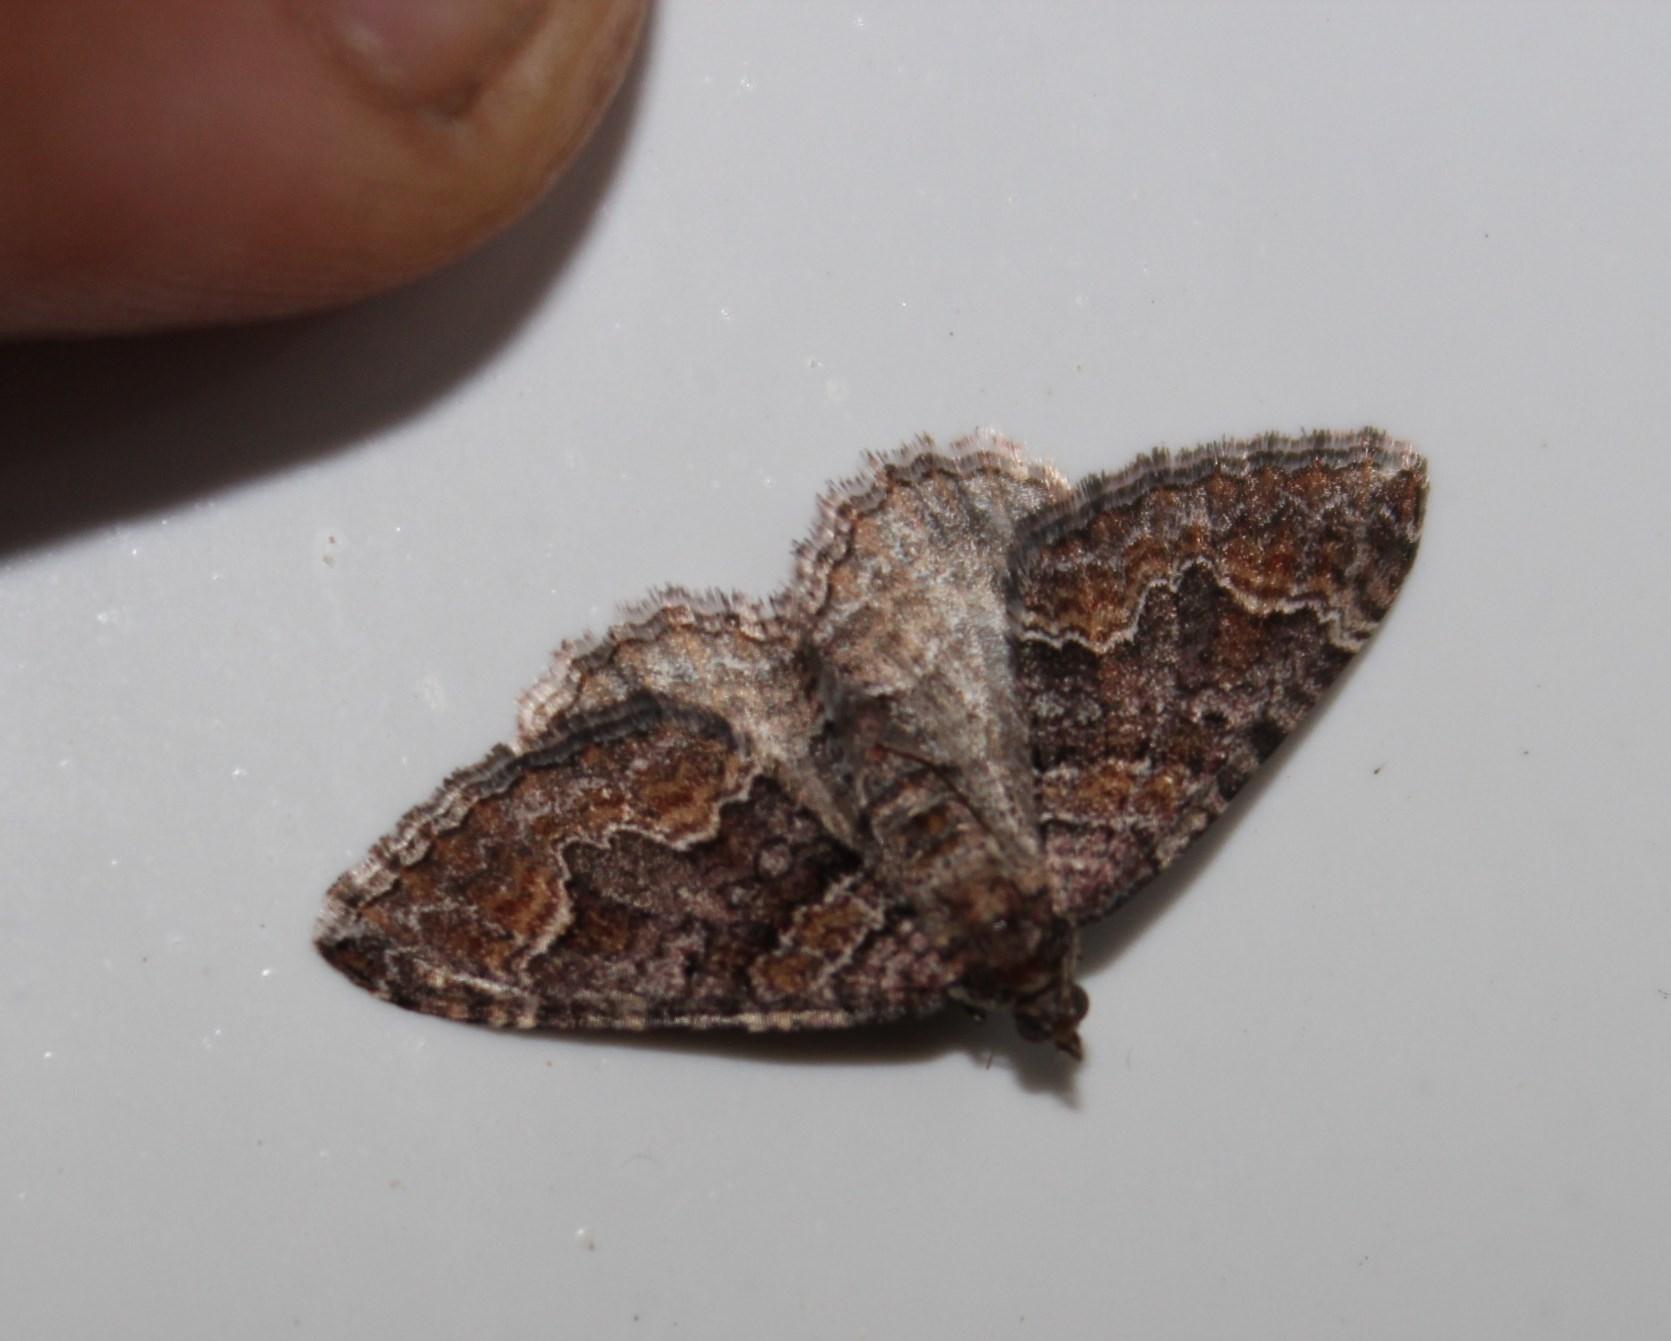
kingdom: Animalia
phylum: Arthropoda
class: Insecta
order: Lepidoptera
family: Geometridae
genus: Mimoclystia
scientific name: Mimoclystia explanata
